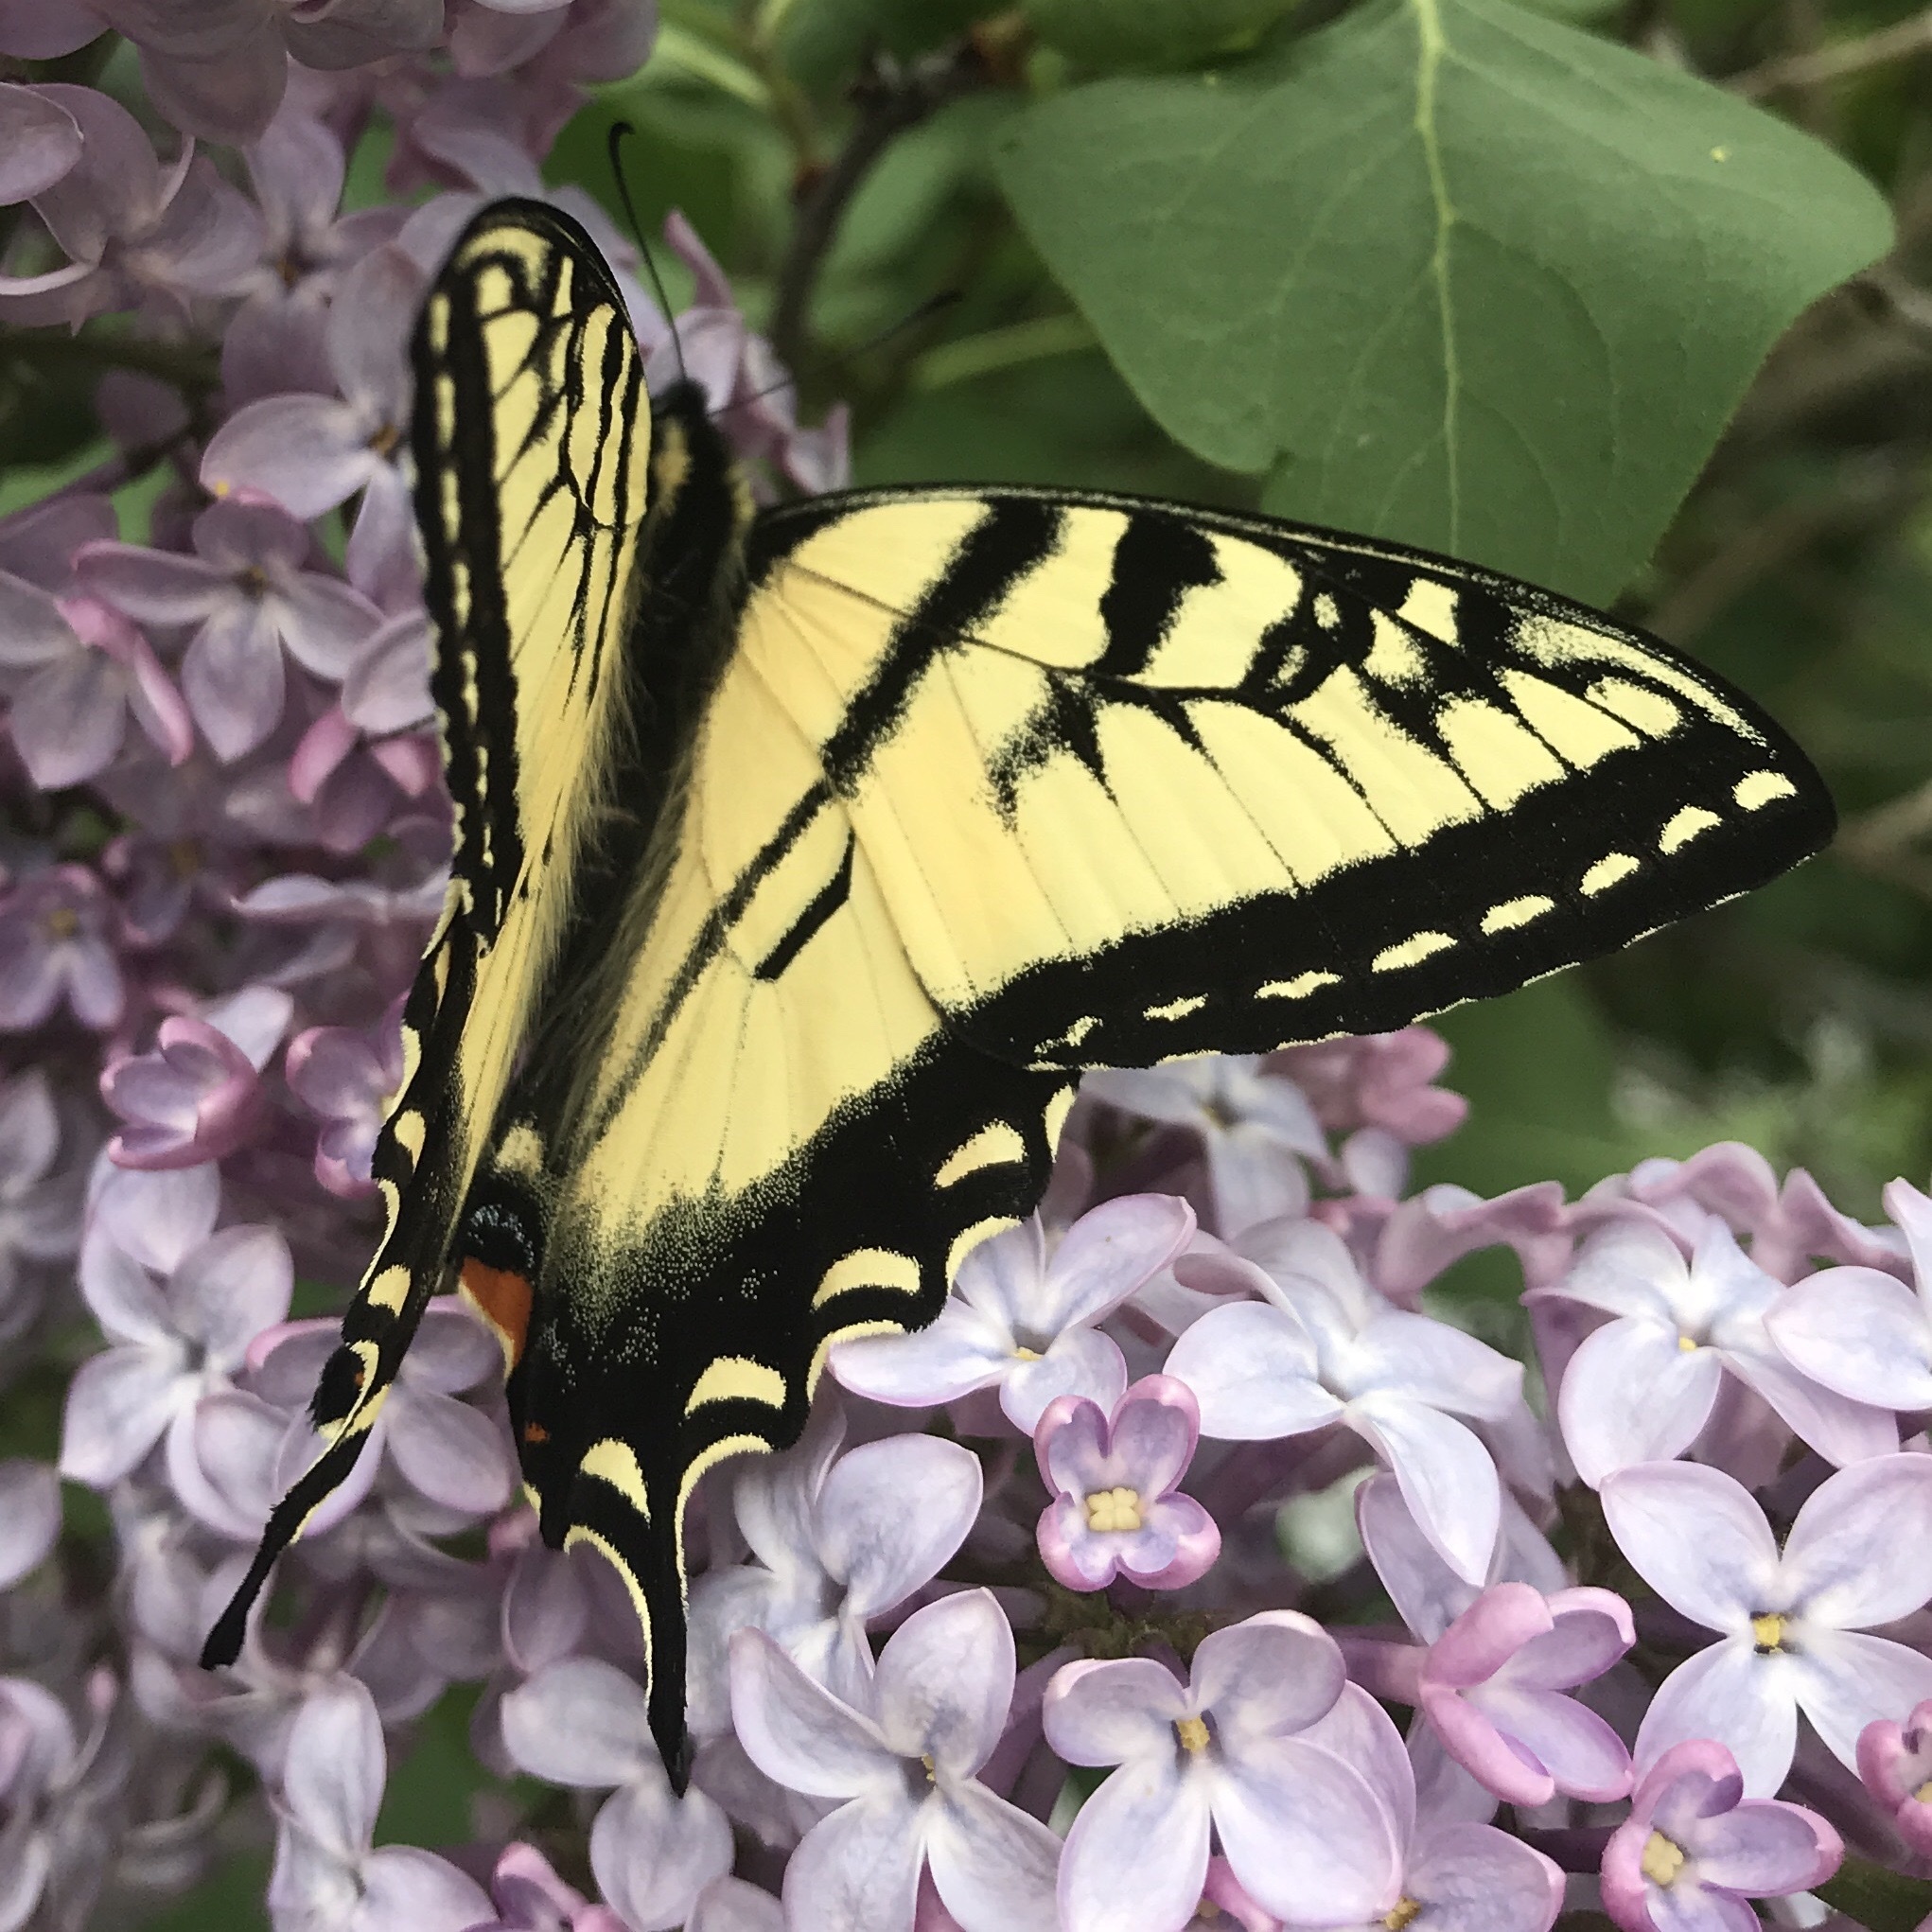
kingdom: Animalia
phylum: Arthropoda
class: Insecta
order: Lepidoptera
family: Papilionidae
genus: Papilio
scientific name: Papilio canadensis
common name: Canadian tiger swallowtail
